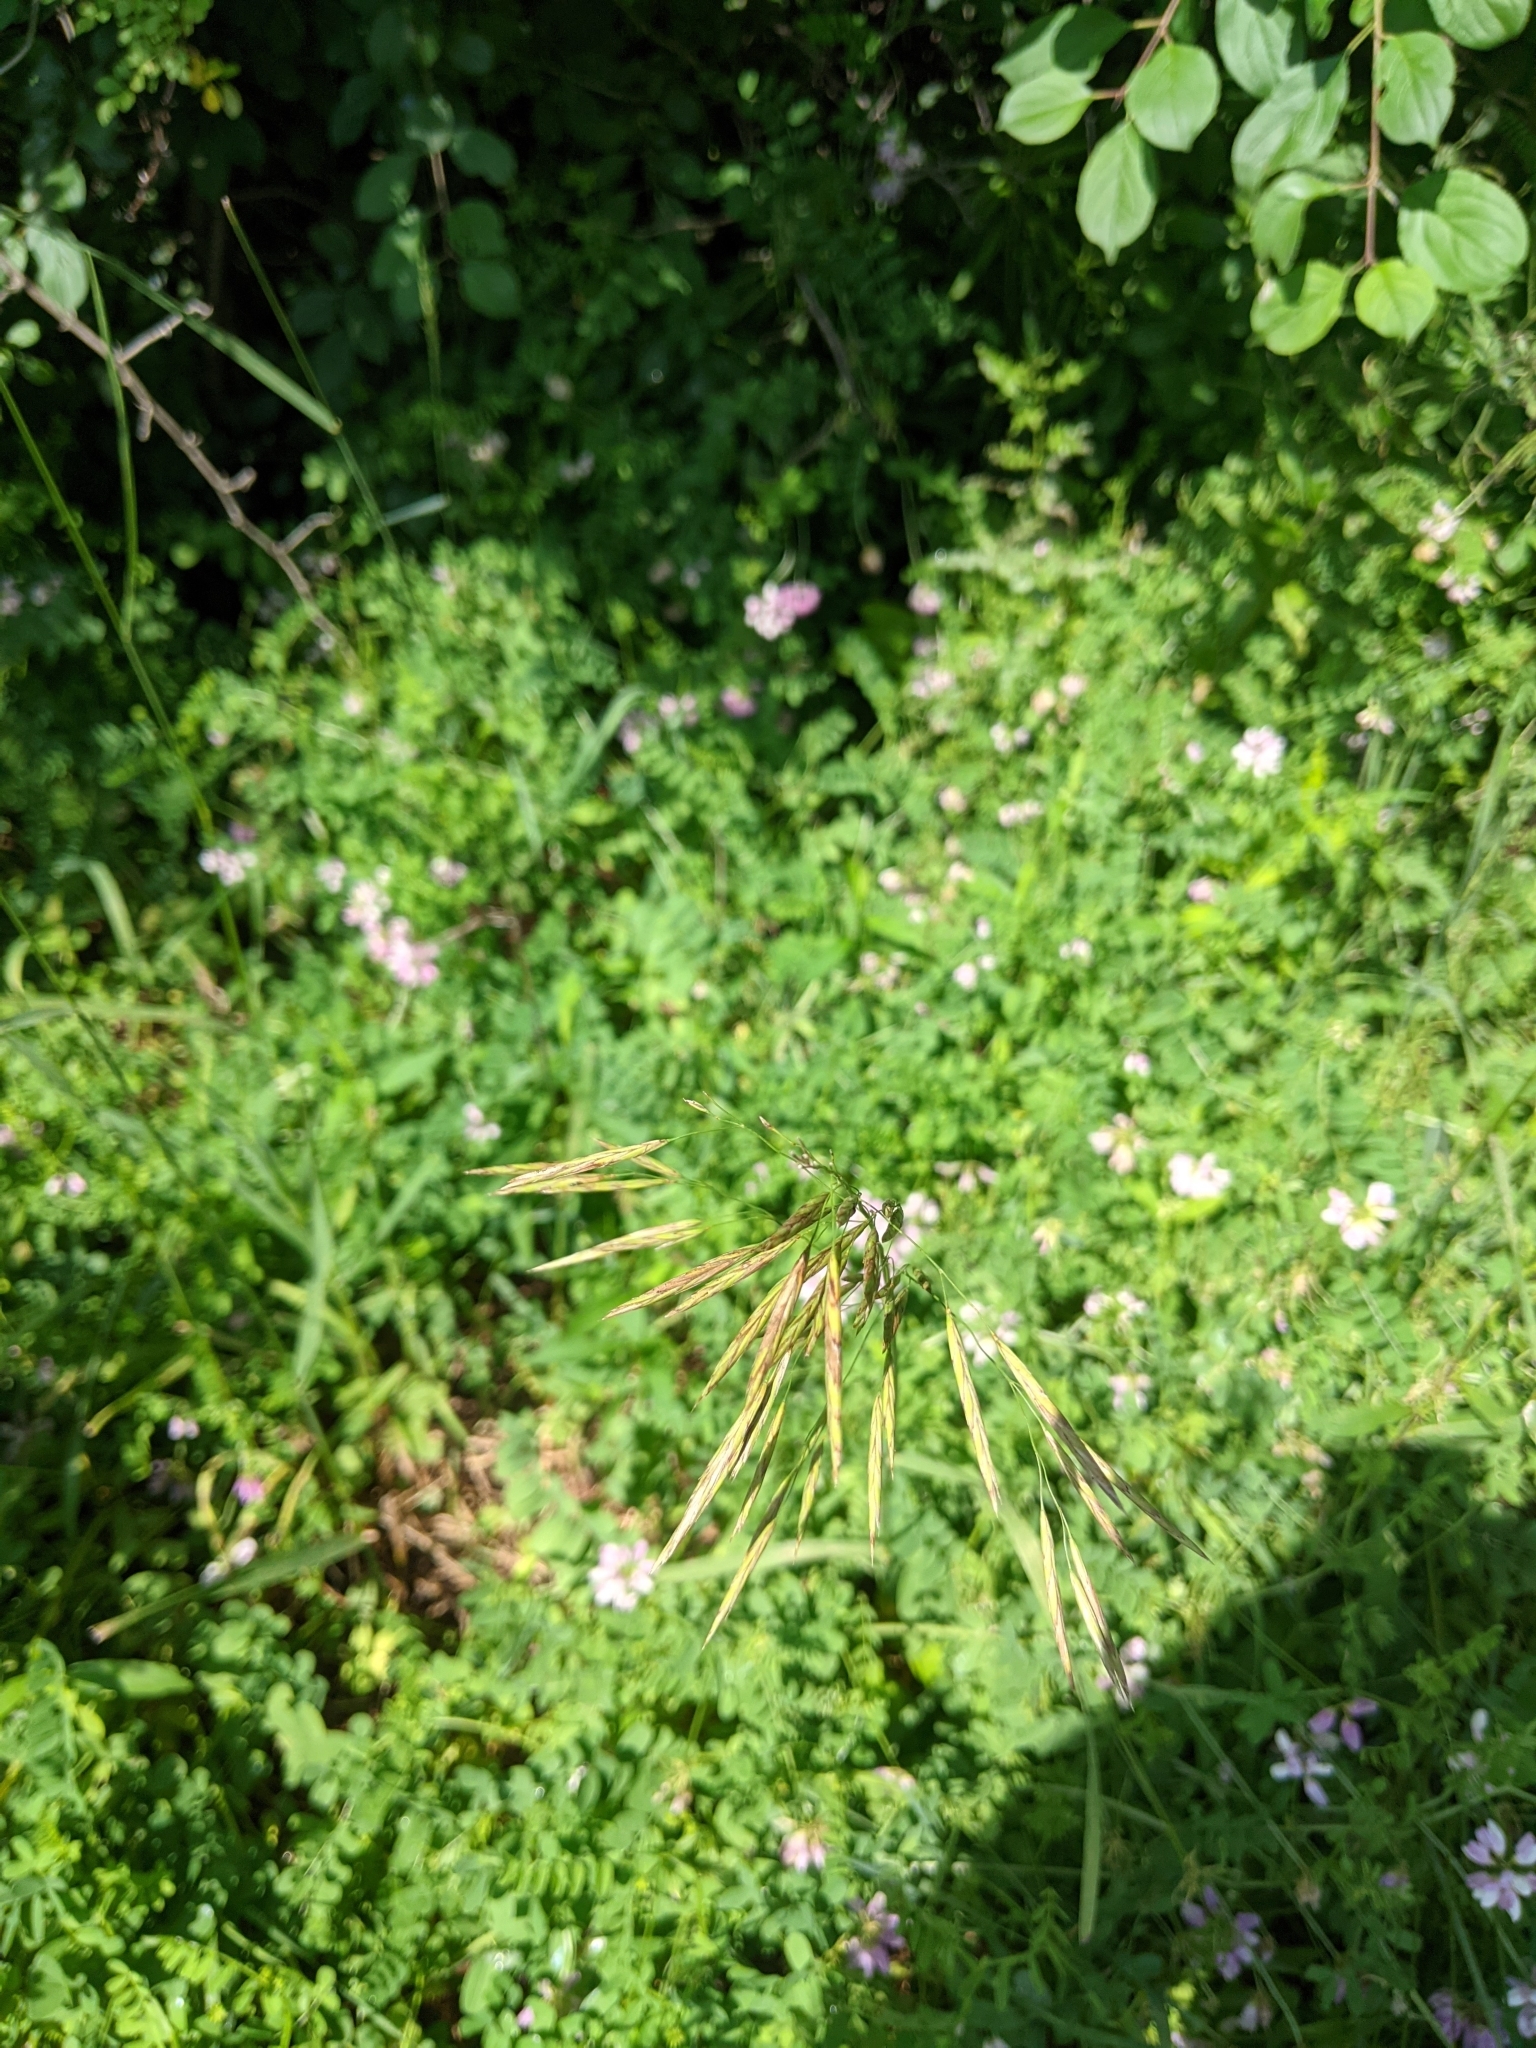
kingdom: Plantae
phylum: Tracheophyta
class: Liliopsida
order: Poales
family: Poaceae
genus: Bromus
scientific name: Bromus inermis
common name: Smooth brome
